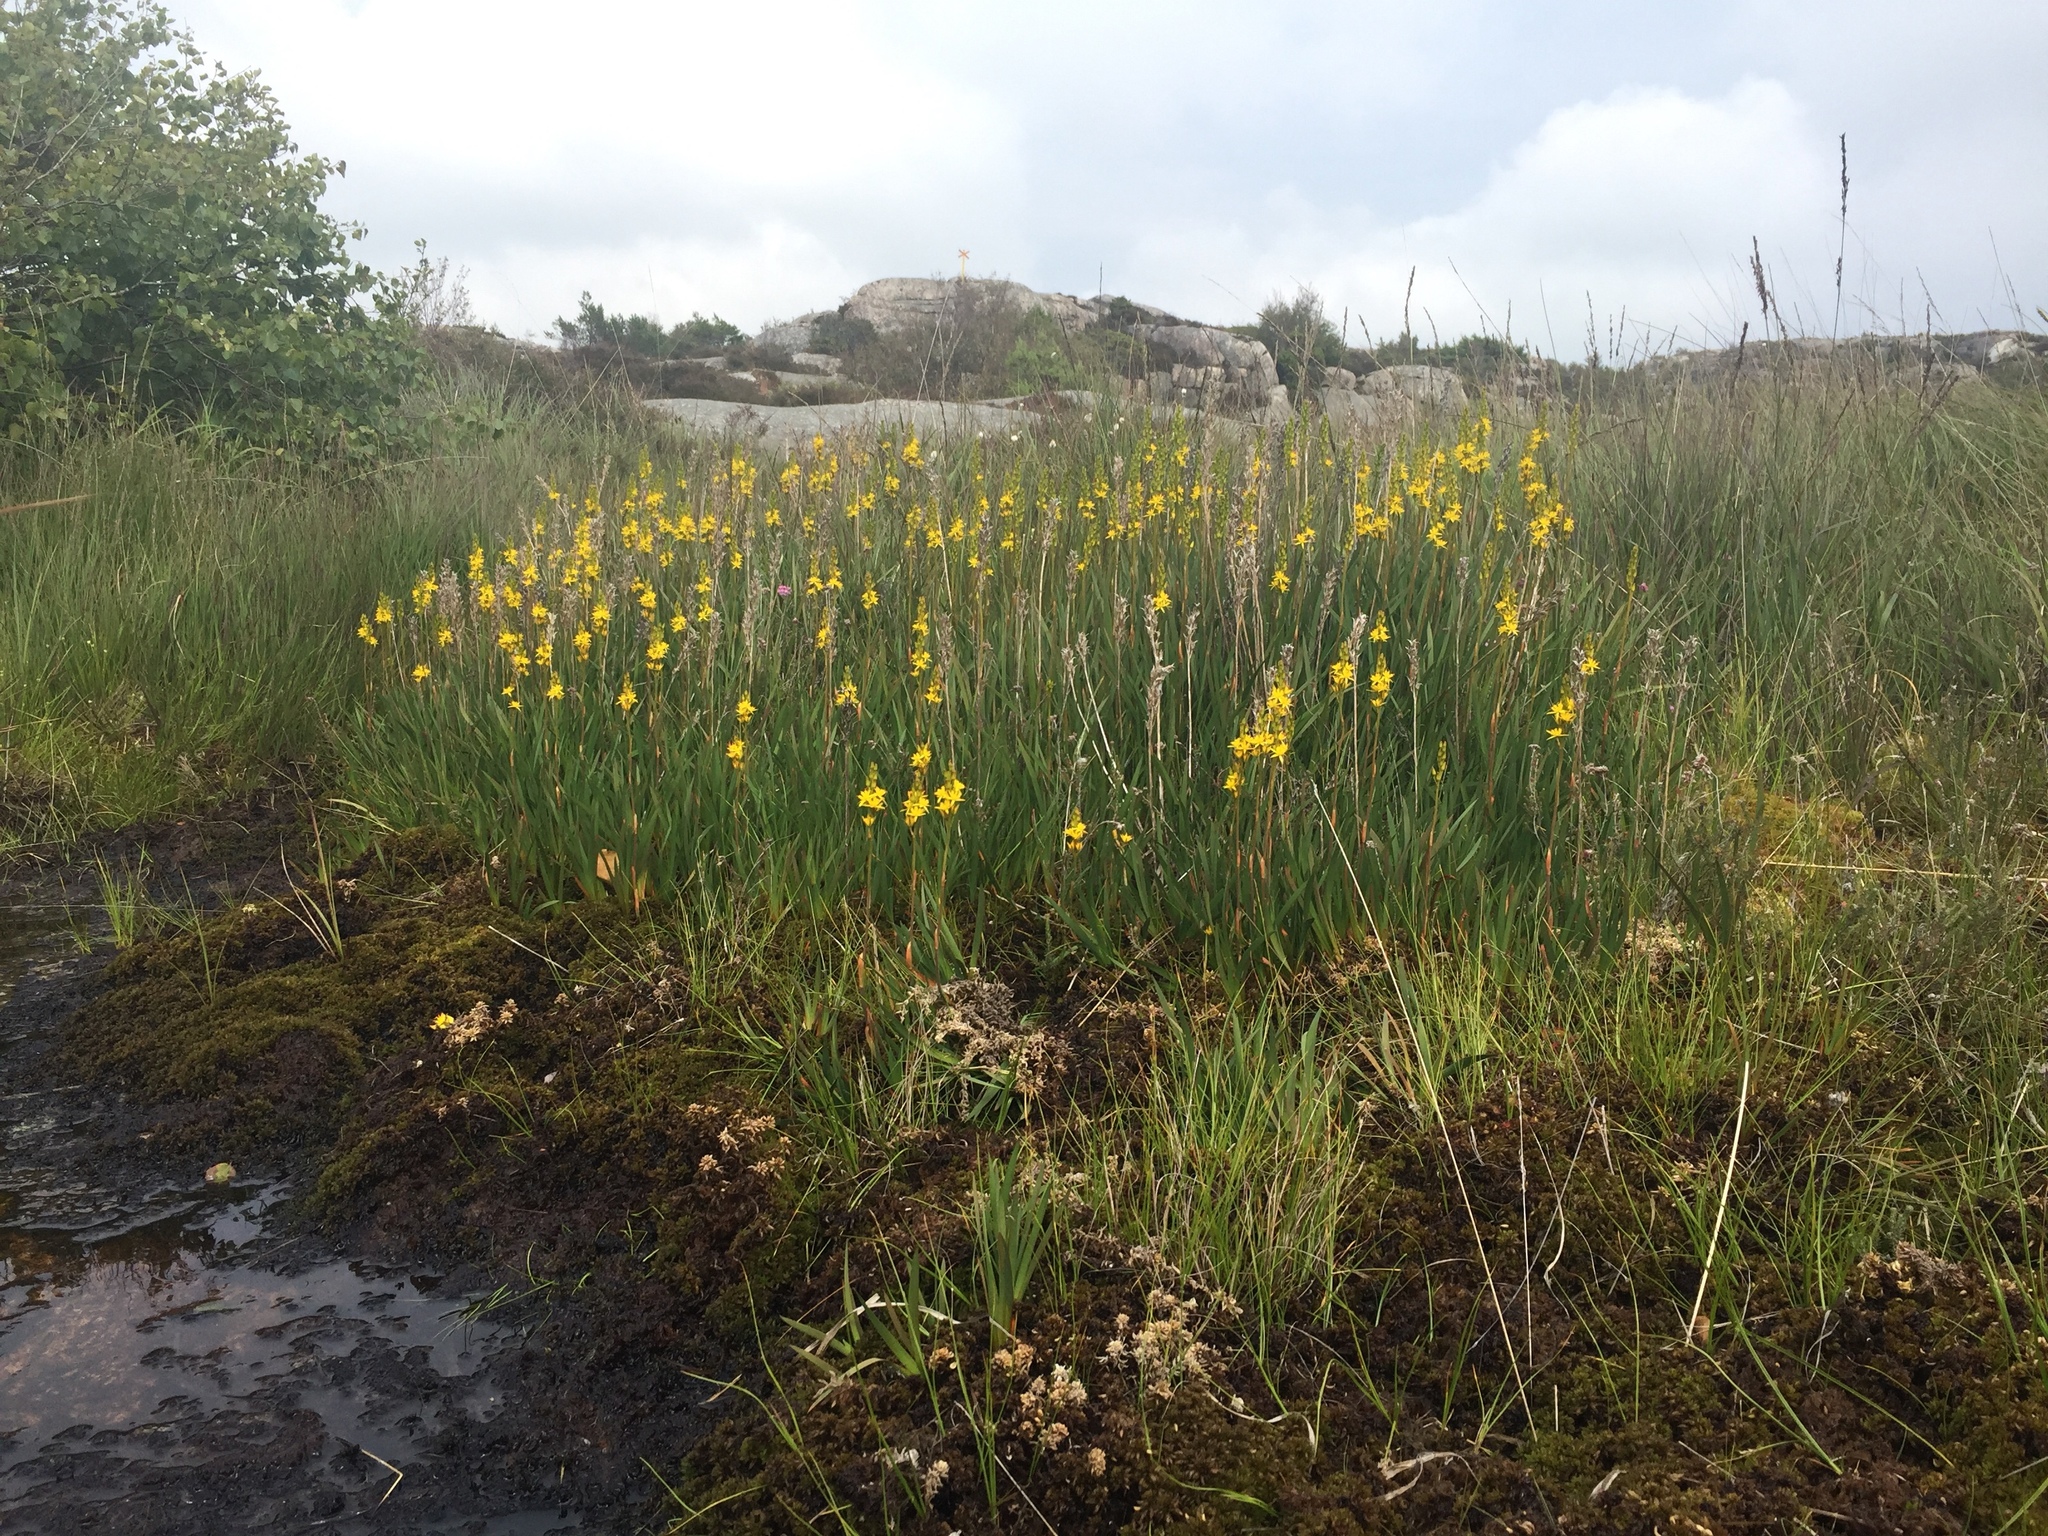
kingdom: Plantae
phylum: Tracheophyta
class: Liliopsida
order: Dioscoreales
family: Nartheciaceae
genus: Narthecium
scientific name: Narthecium ossifragum
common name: Bog asphodel
